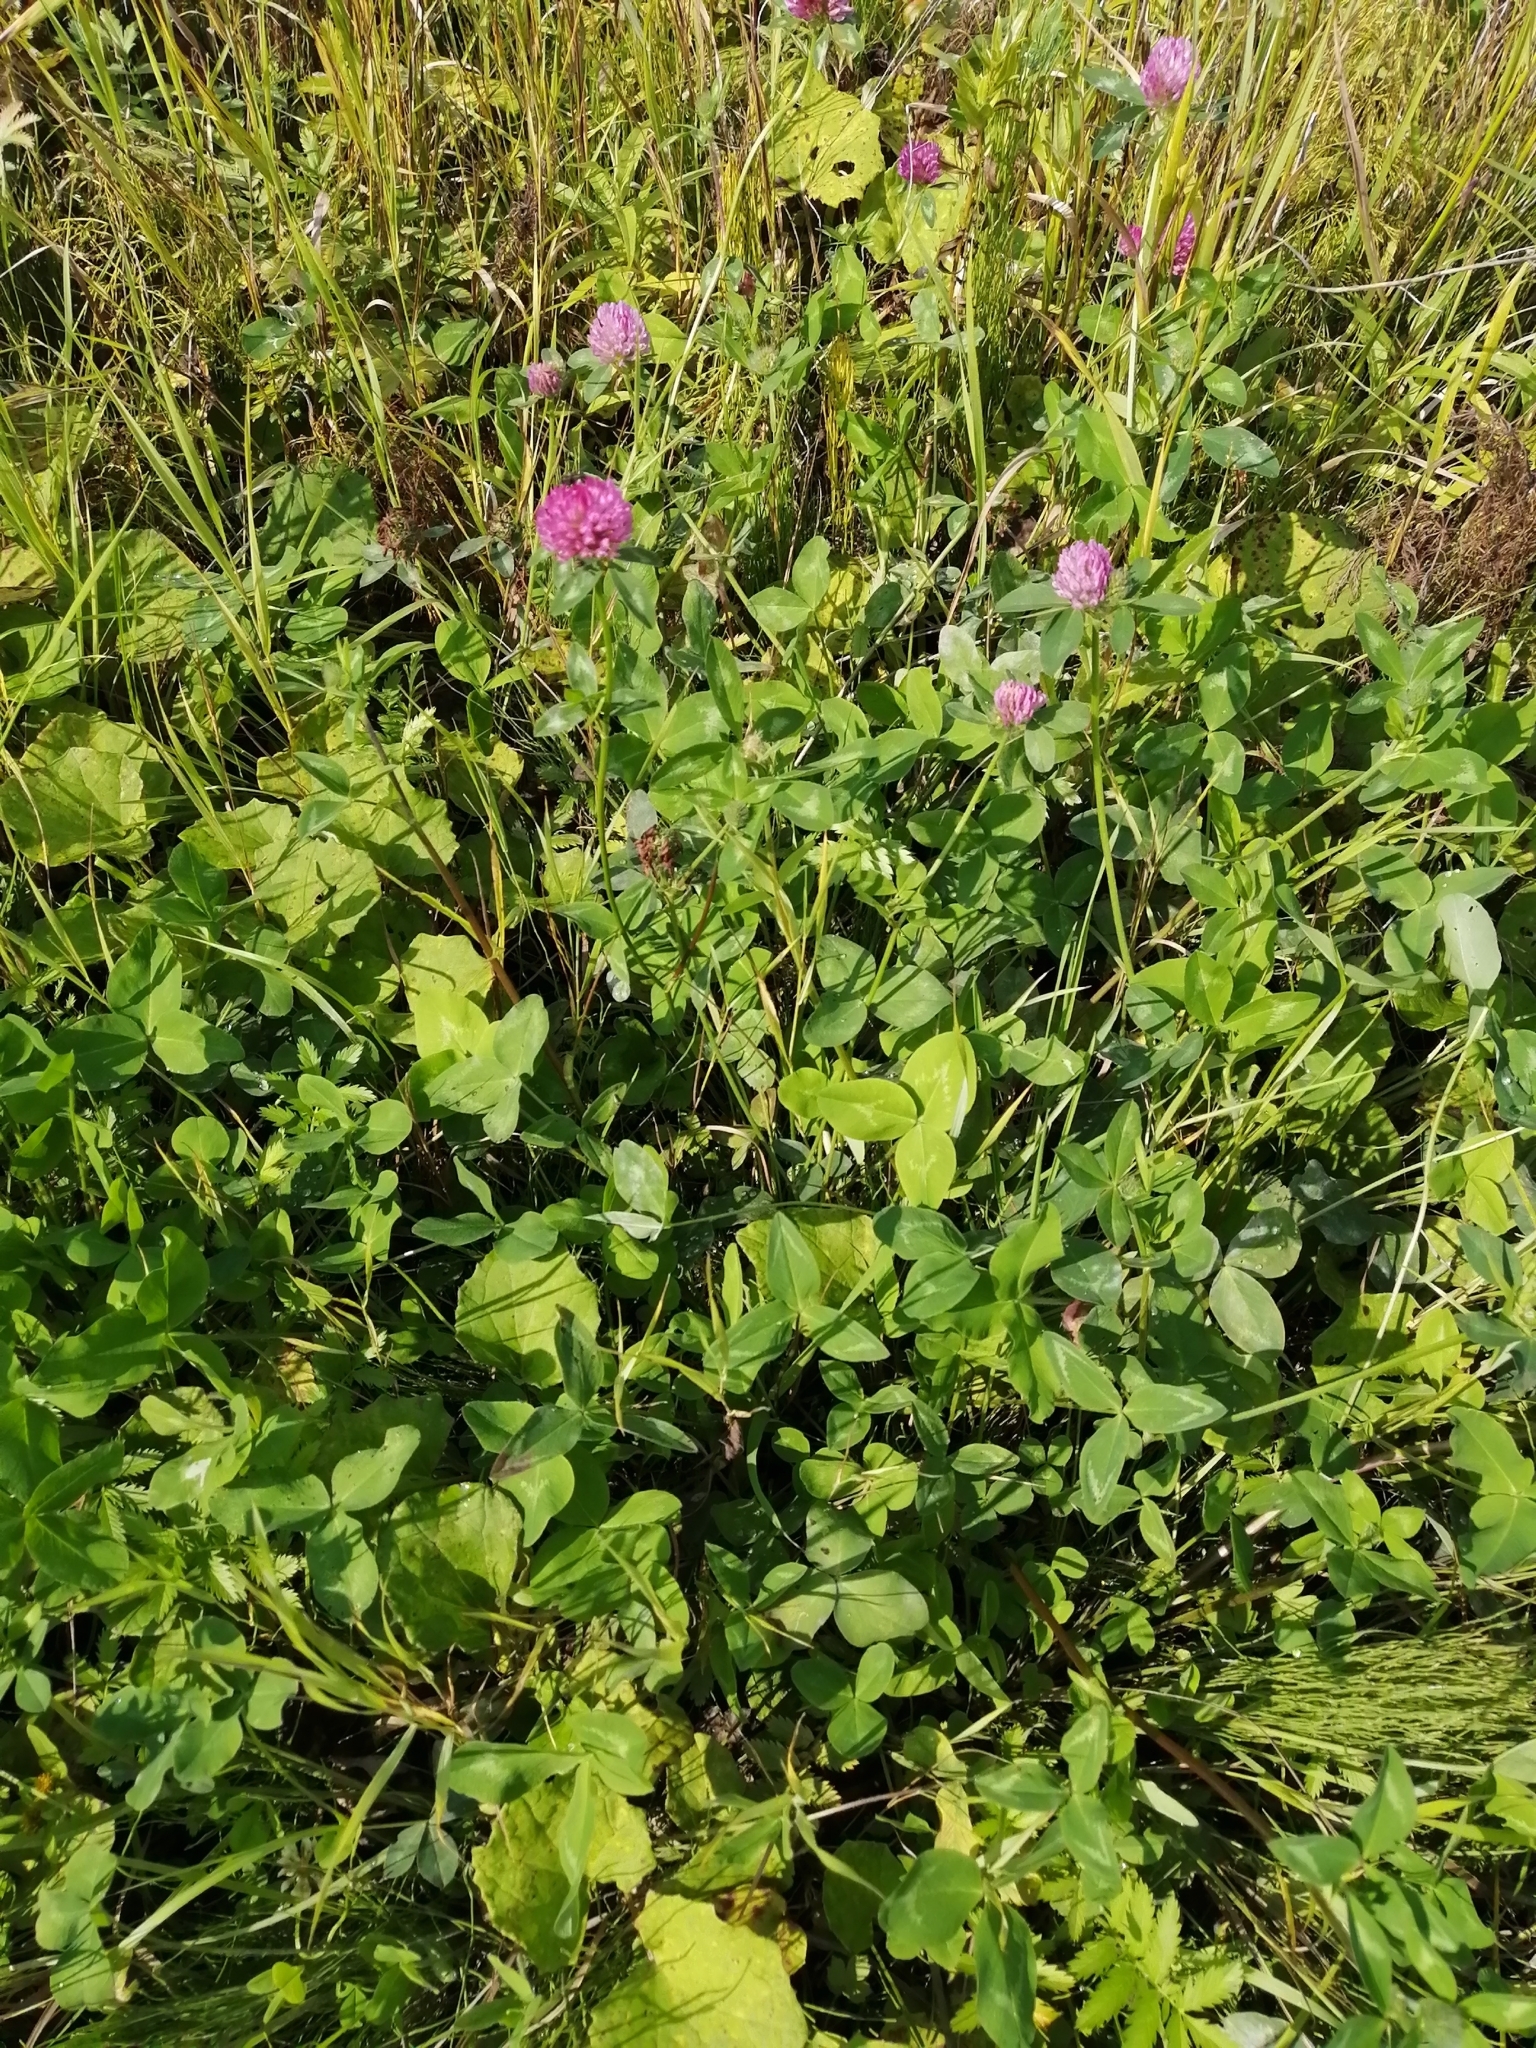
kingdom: Plantae
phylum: Tracheophyta
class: Magnoliopsida
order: Fabales
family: Fabaceae
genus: Trifolium
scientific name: Trifolium pratense
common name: Red clover
